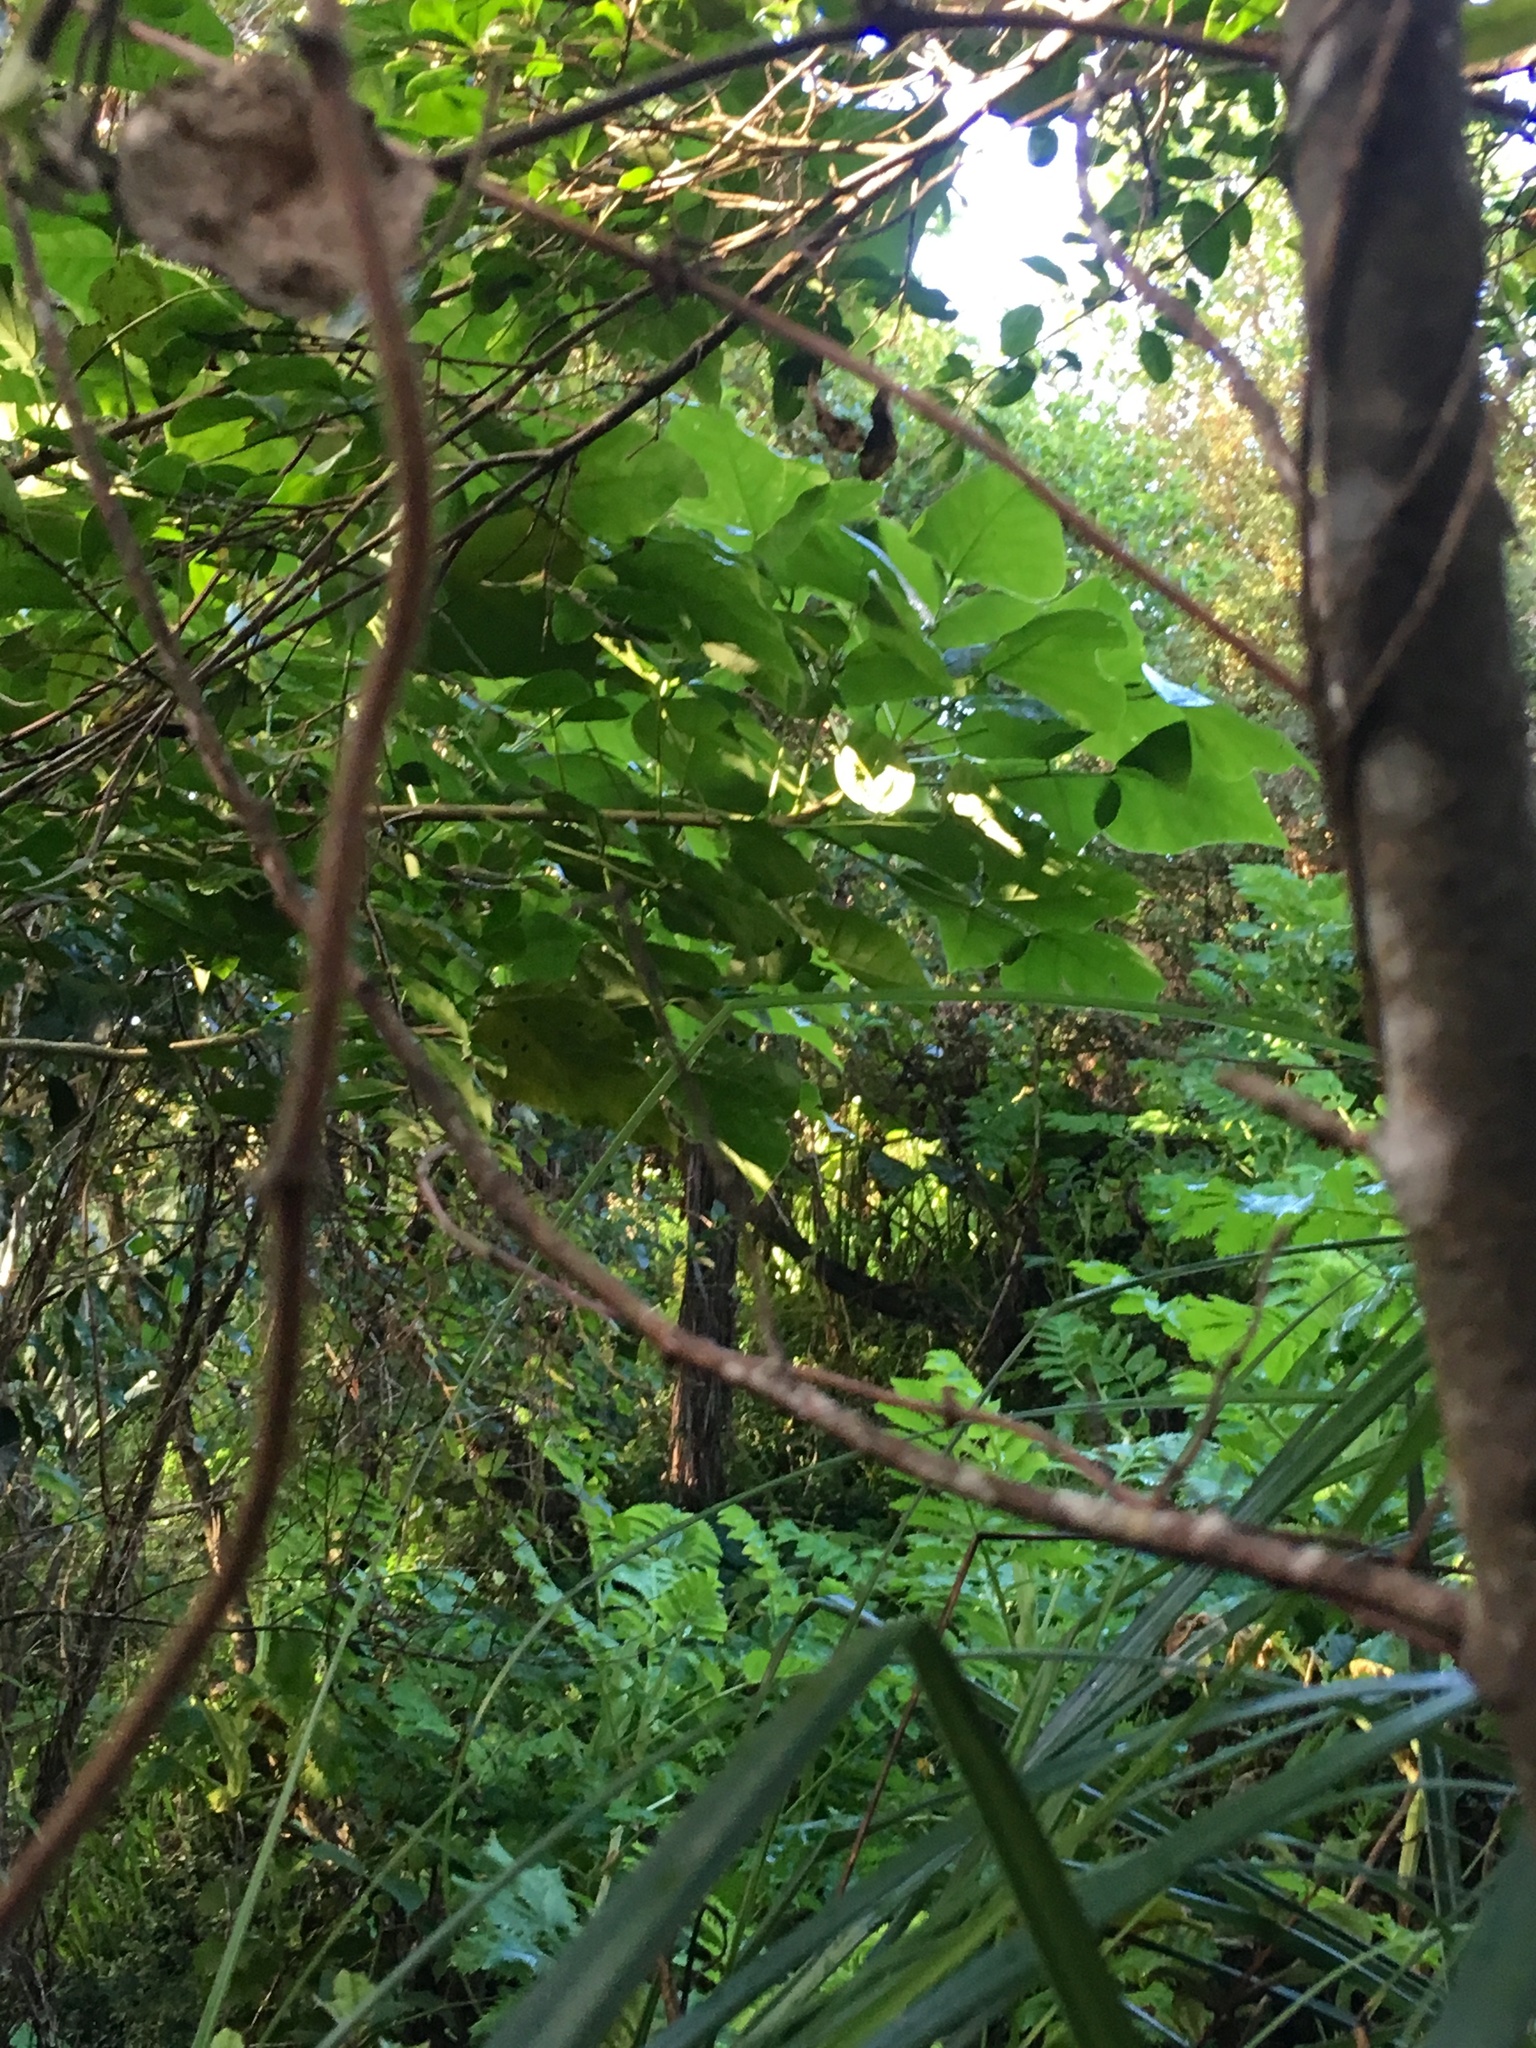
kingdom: Plantae
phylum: Tracheophyta
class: Magnoliopsida
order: Geraniales
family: Melianthaceae
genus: Melianthus
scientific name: Melianthus major
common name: Honey-flower
